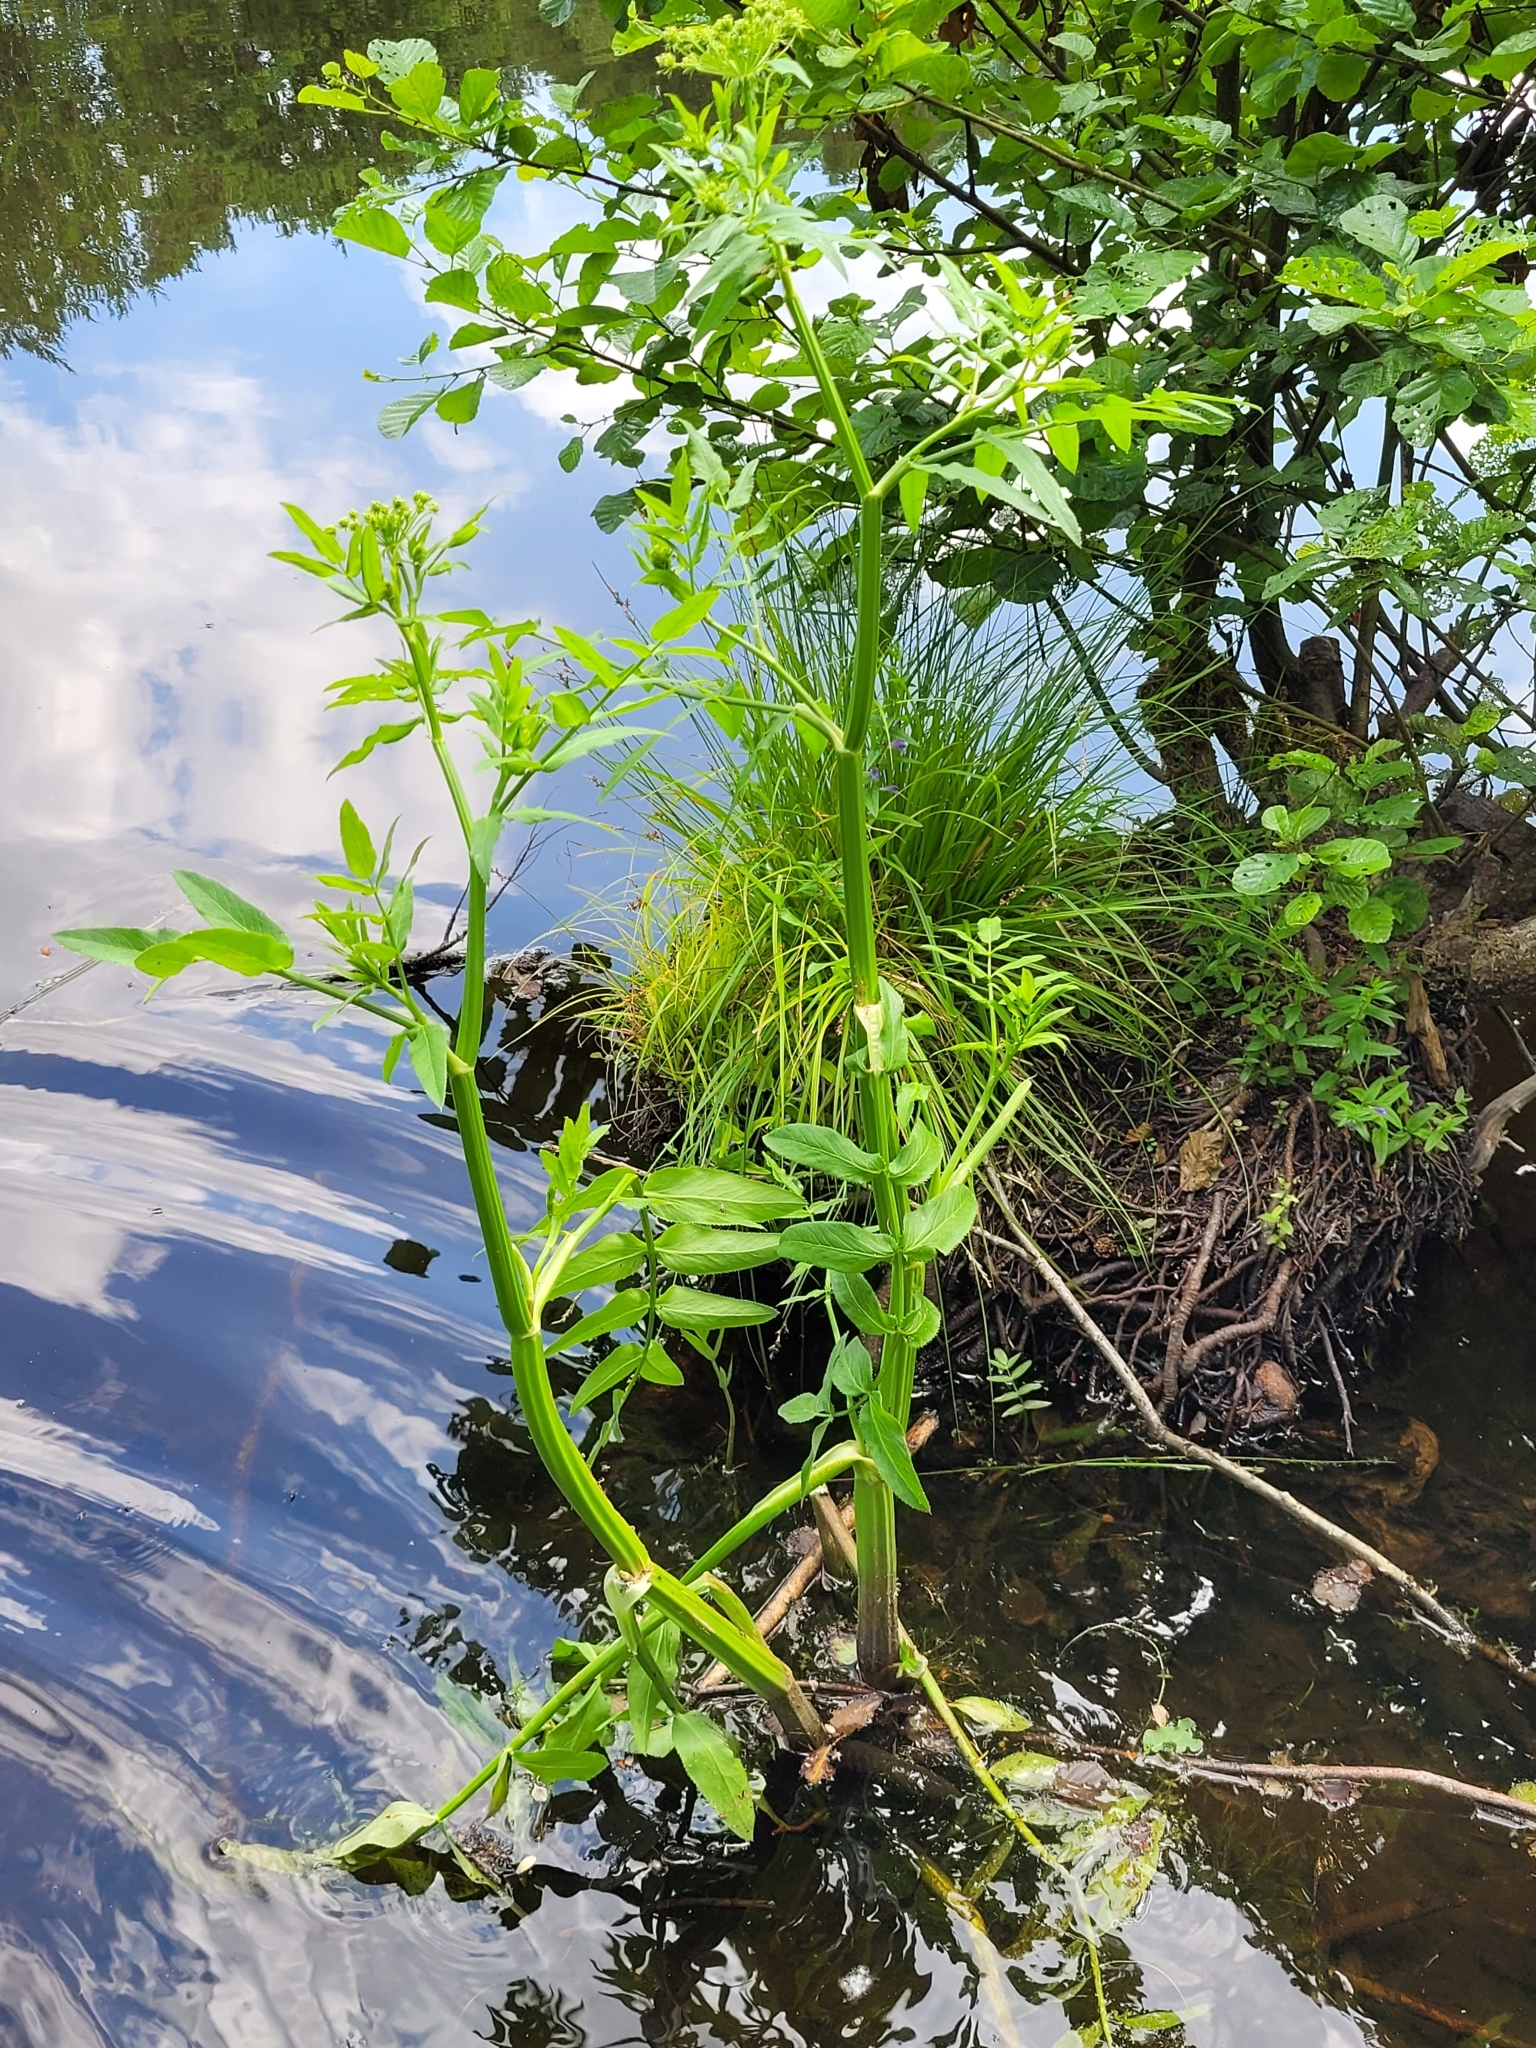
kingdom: Plantae
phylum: Tracheophyta
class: Magnoliopsida
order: Apiales
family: Apiaceae
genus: Sium
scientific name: Sium latifolium
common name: Greater water-parsnip
